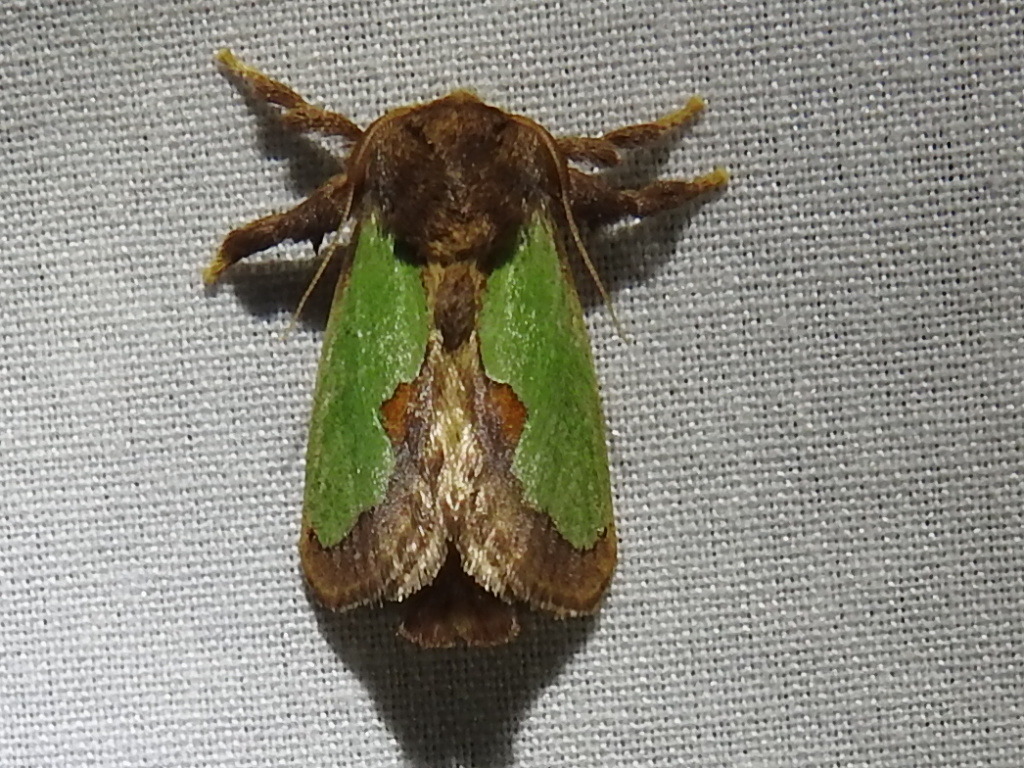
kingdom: Animalia
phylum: Arthropoda
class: Insecta
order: Lepidoptera
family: Limacodidae
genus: Euclea
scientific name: Euclea incisa
